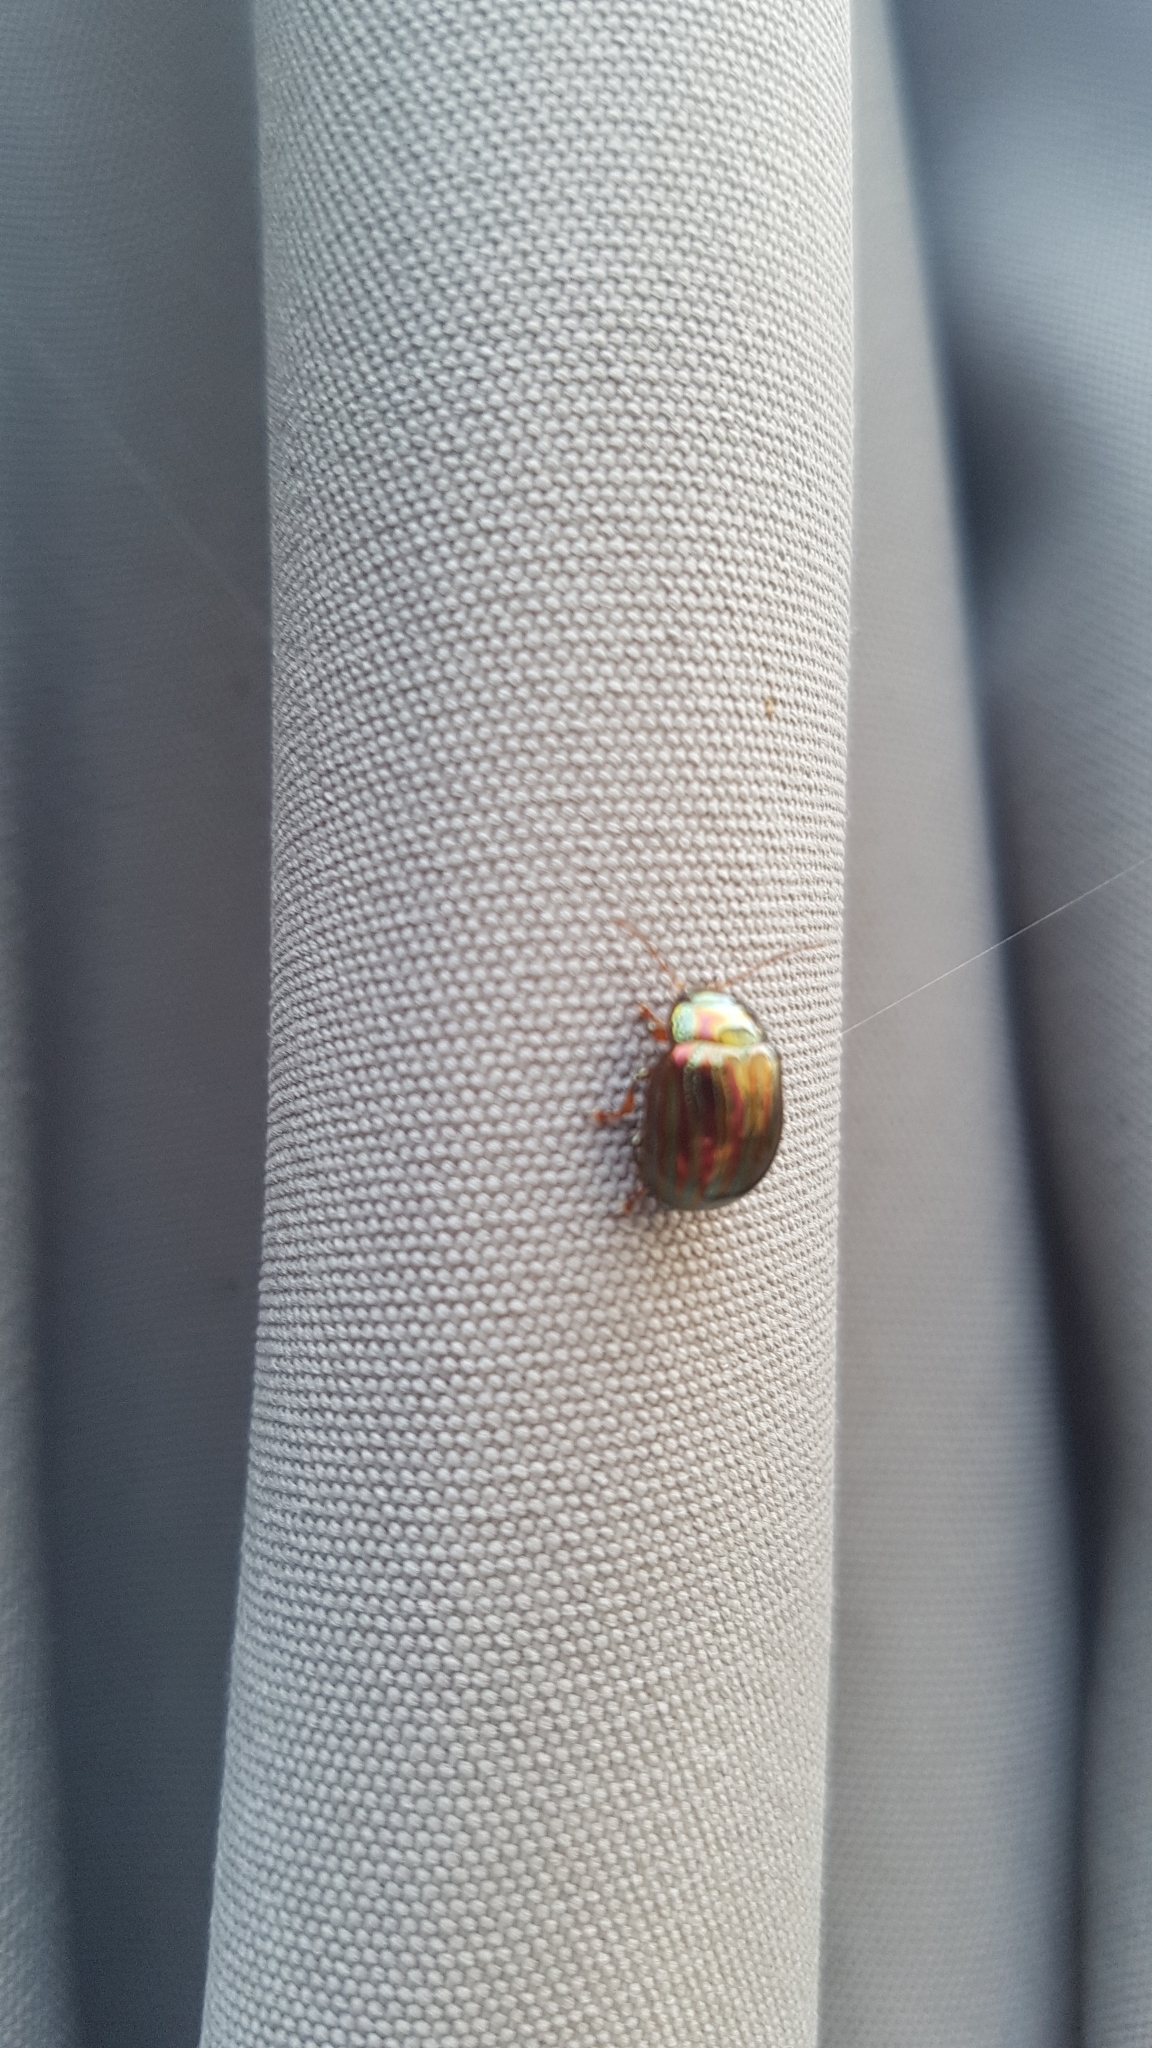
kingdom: Animalia
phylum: Arthropoda
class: Insecta
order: Coleoptera
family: Chrysomelidae
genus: Chrysolina
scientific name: Chrysolina americana
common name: Rosemary beetle
